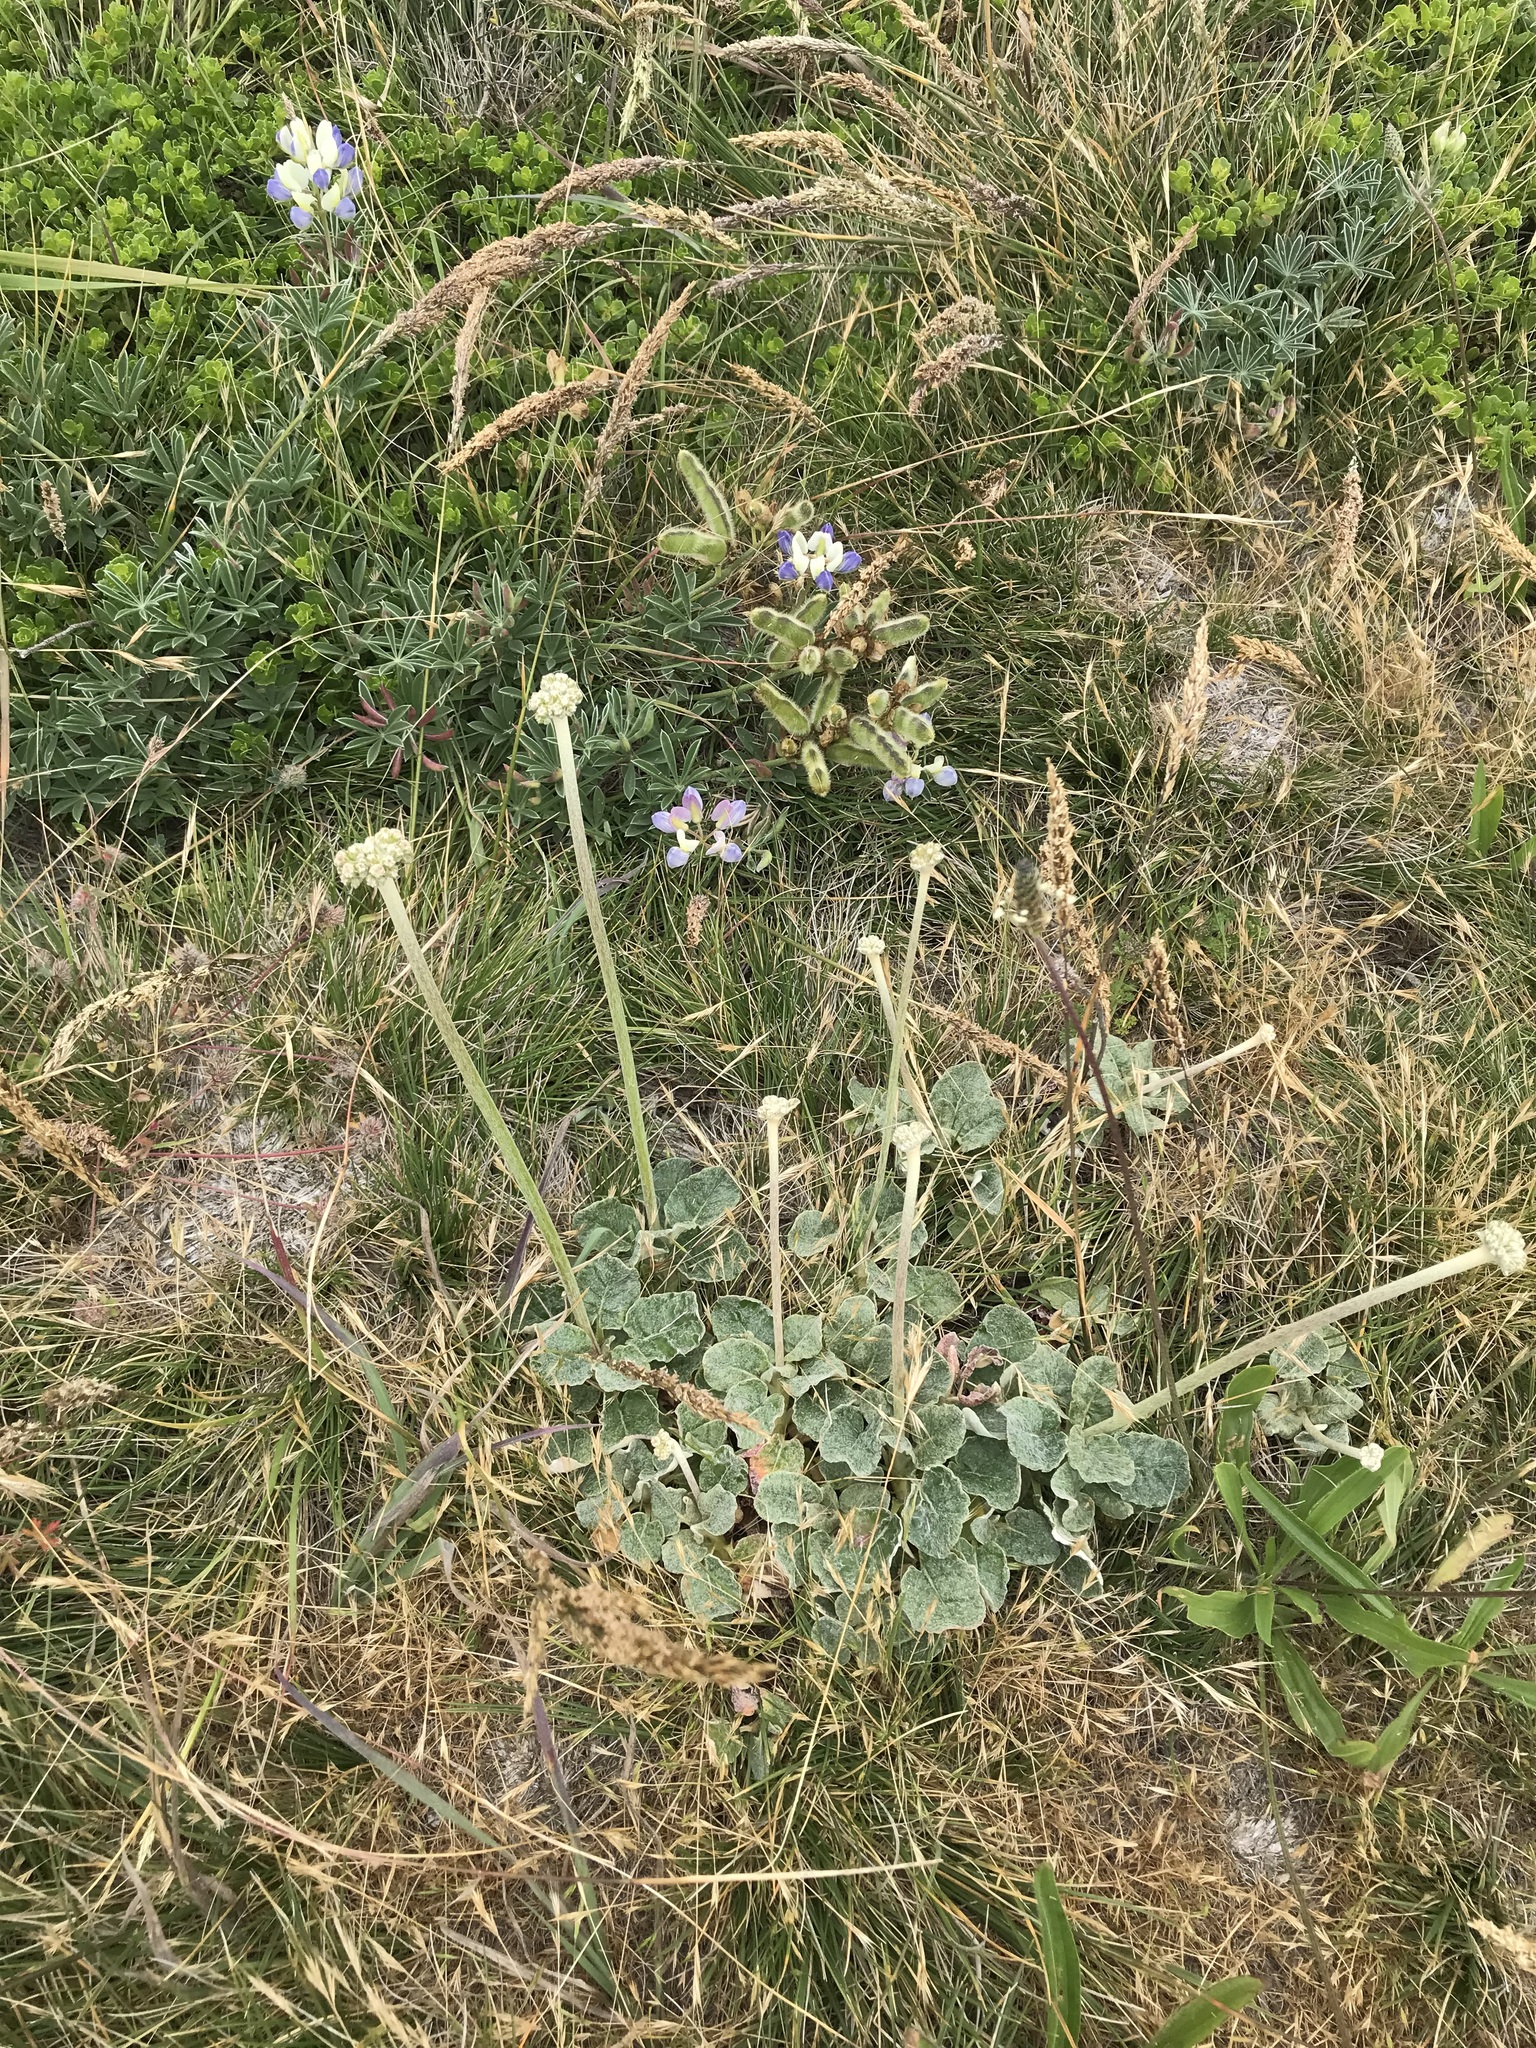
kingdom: Plantae
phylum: Tracheophyta
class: Magnoliopsida
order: Caryophyllales
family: Polygonaceae
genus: Eriogonum
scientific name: Eriogonum latifolium
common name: Seaside wild buckwheat
